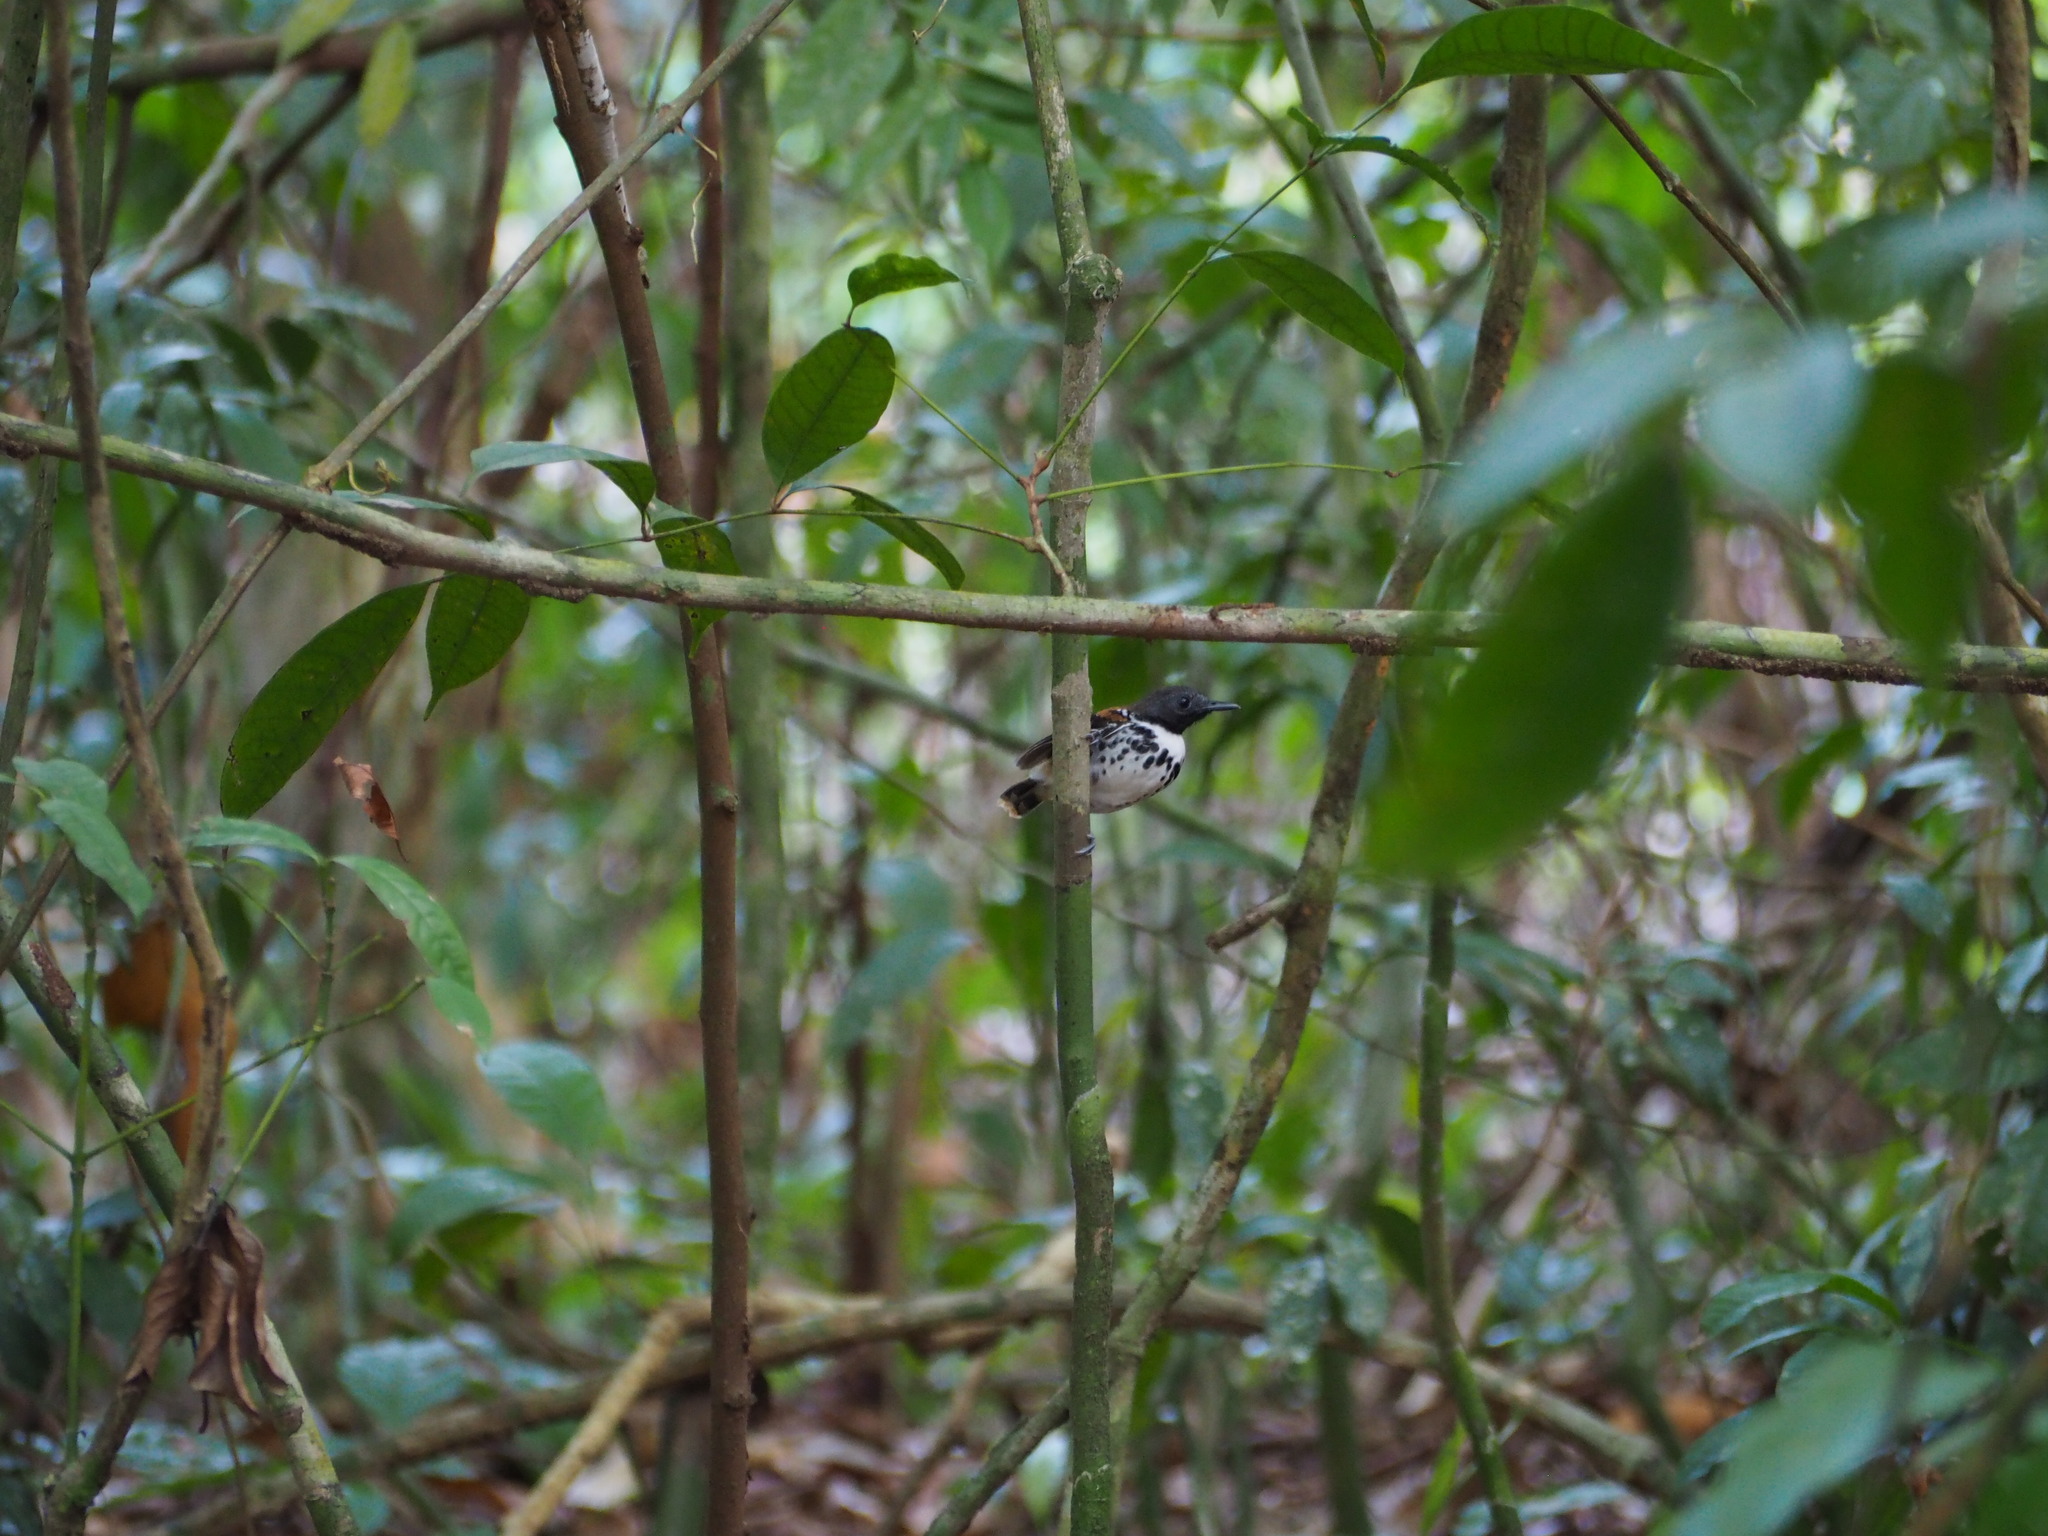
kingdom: Animalia
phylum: Chordata
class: Aves
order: Passeriformes
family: Thamnophilidae
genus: Hylophylax
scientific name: Hylophylax naevioides
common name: Spotted antbird
